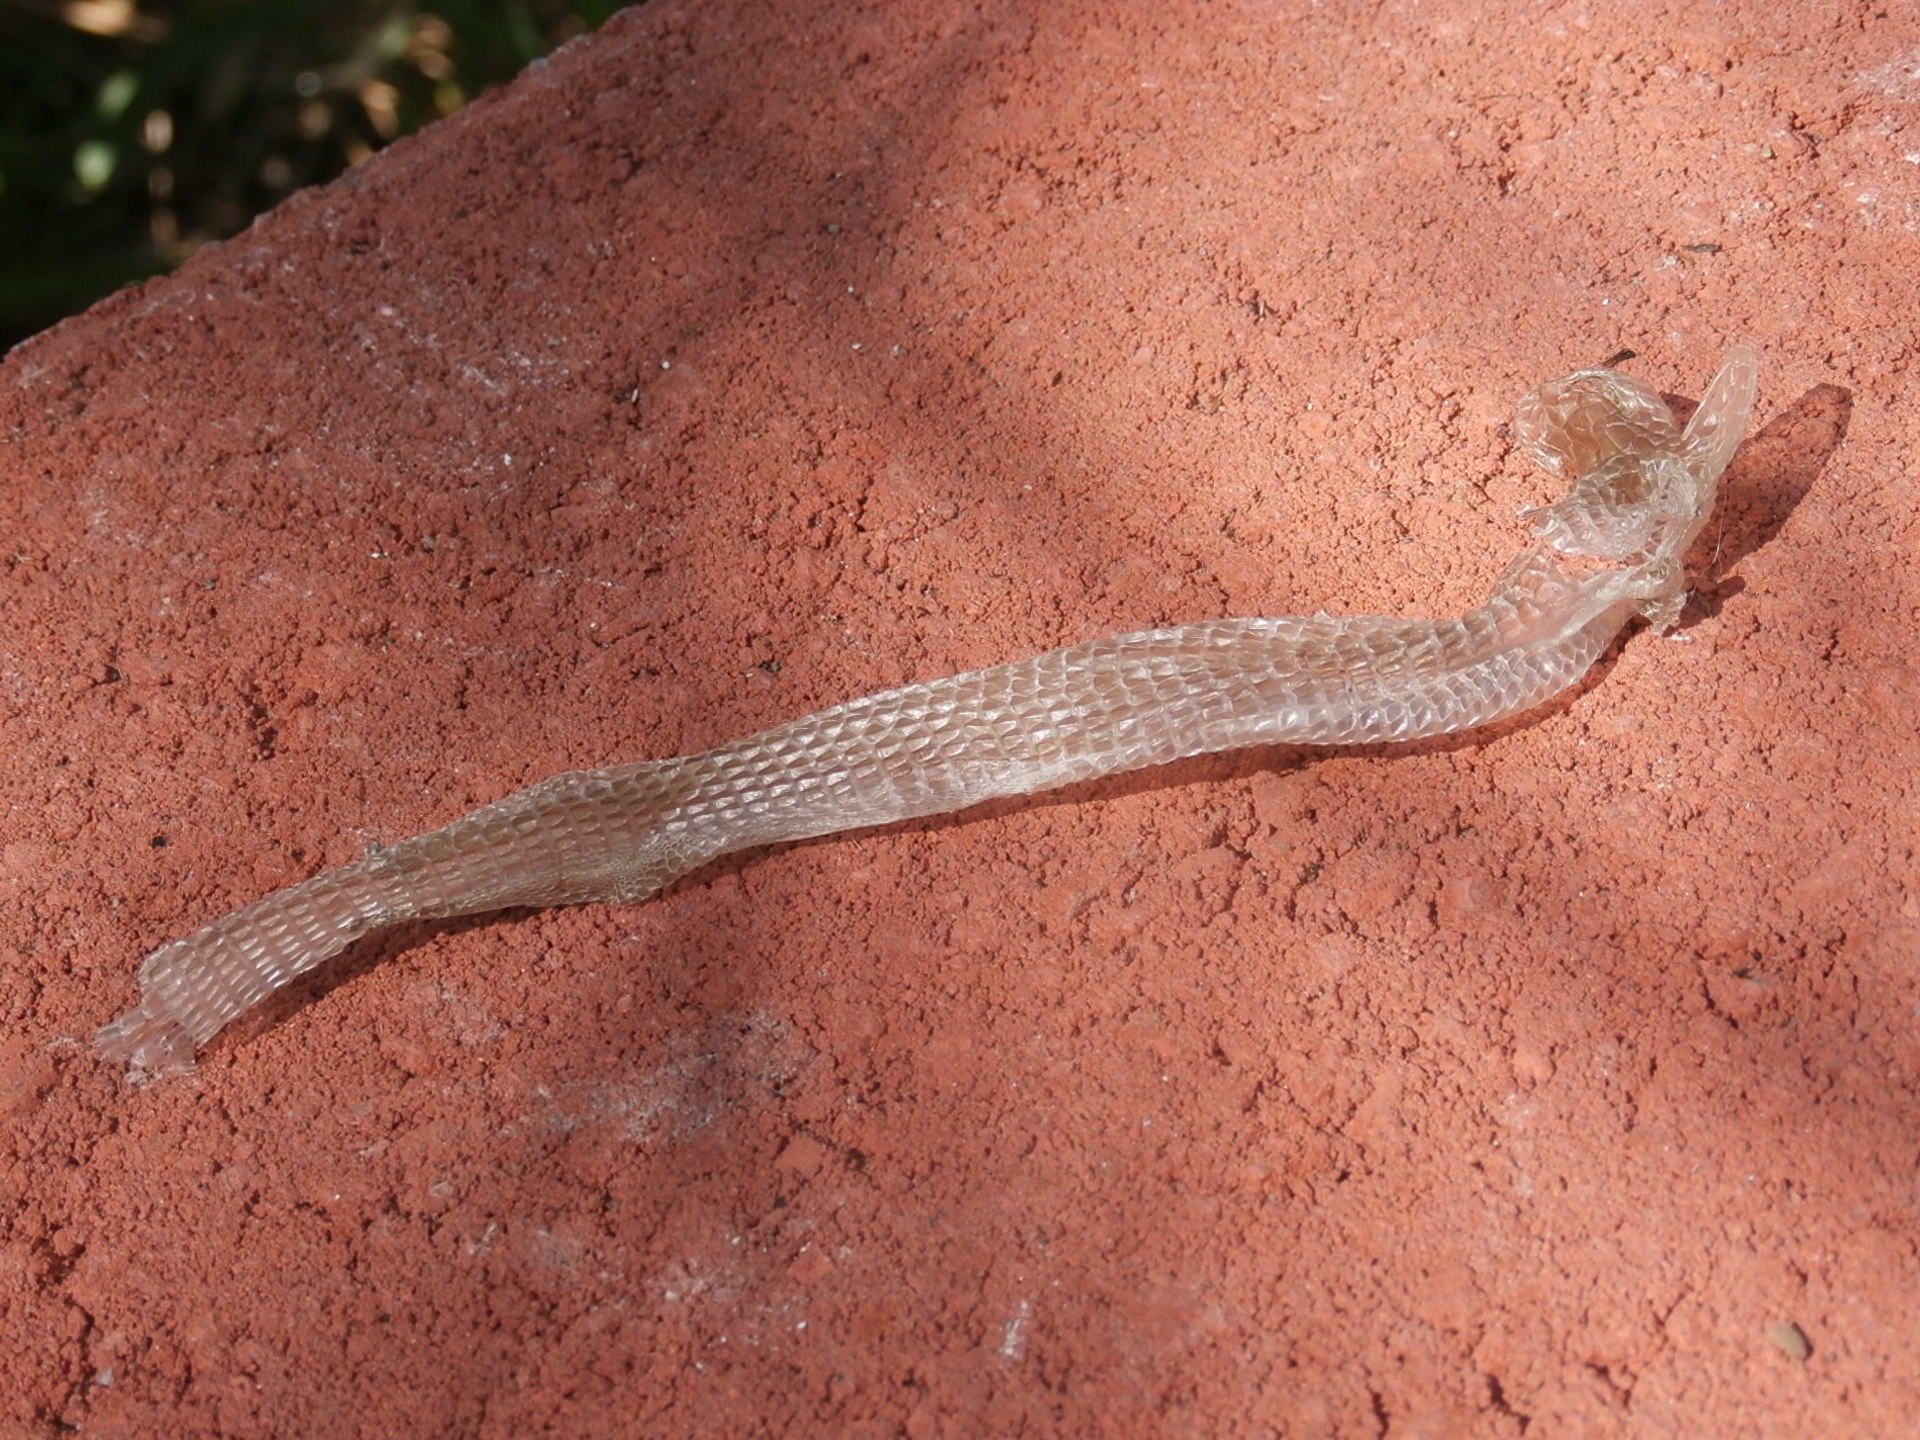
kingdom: Animalia
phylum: Chordata
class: Squamata
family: Anguidae
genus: Elgaria
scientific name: Elgaria multicarinata
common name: Southern alligator lizard
